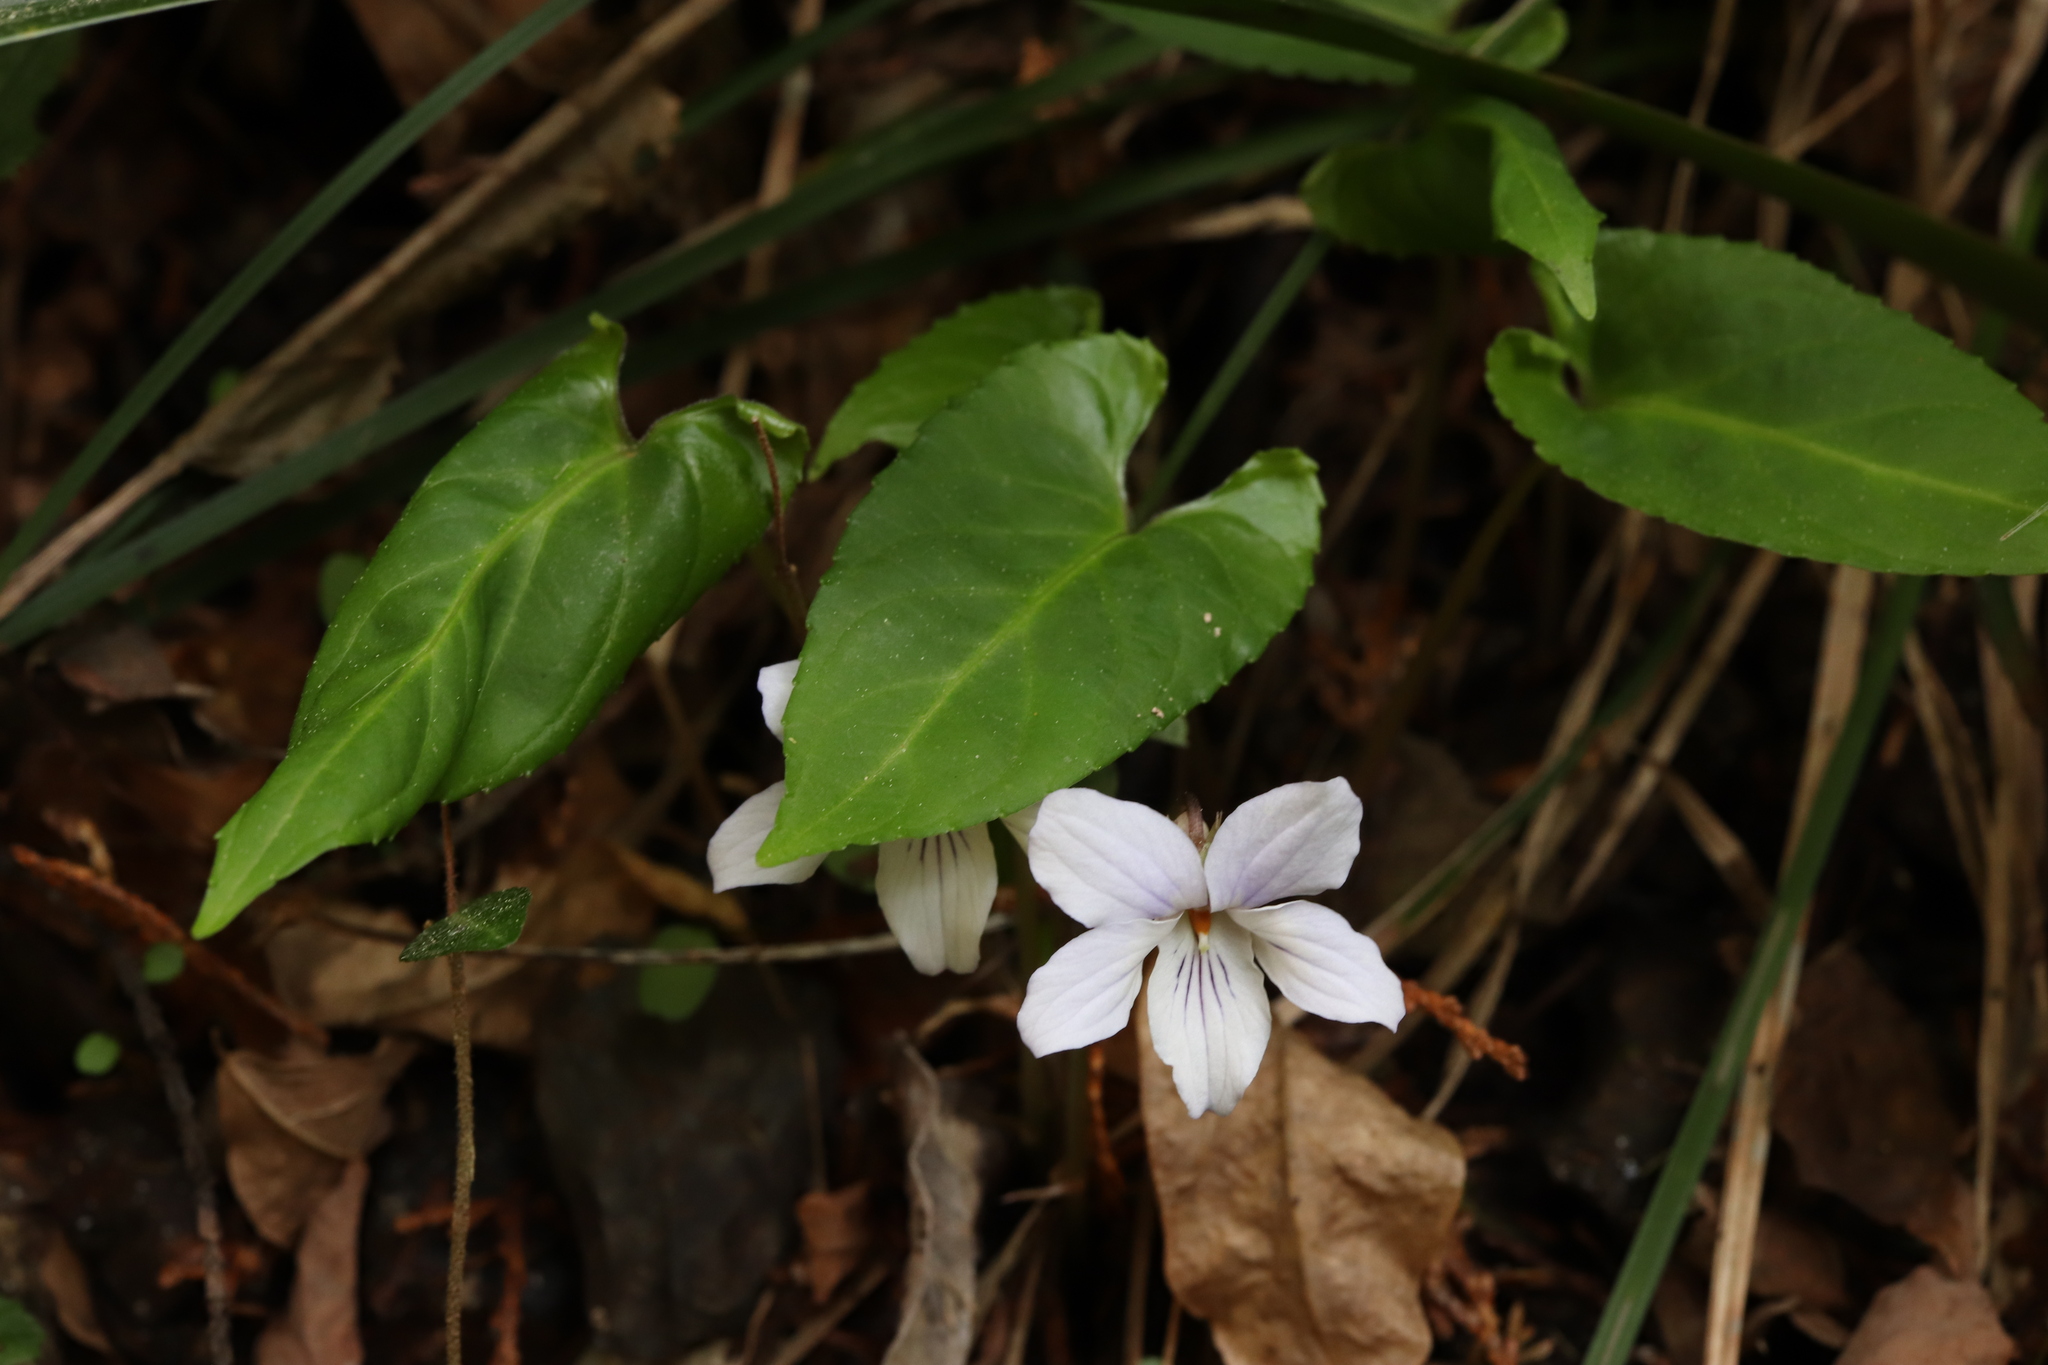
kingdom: Plantae
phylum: Tracheophyta
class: Magnoliopsida
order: Malpighiales
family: Violaceae
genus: Viola
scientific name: Viola bissetii
